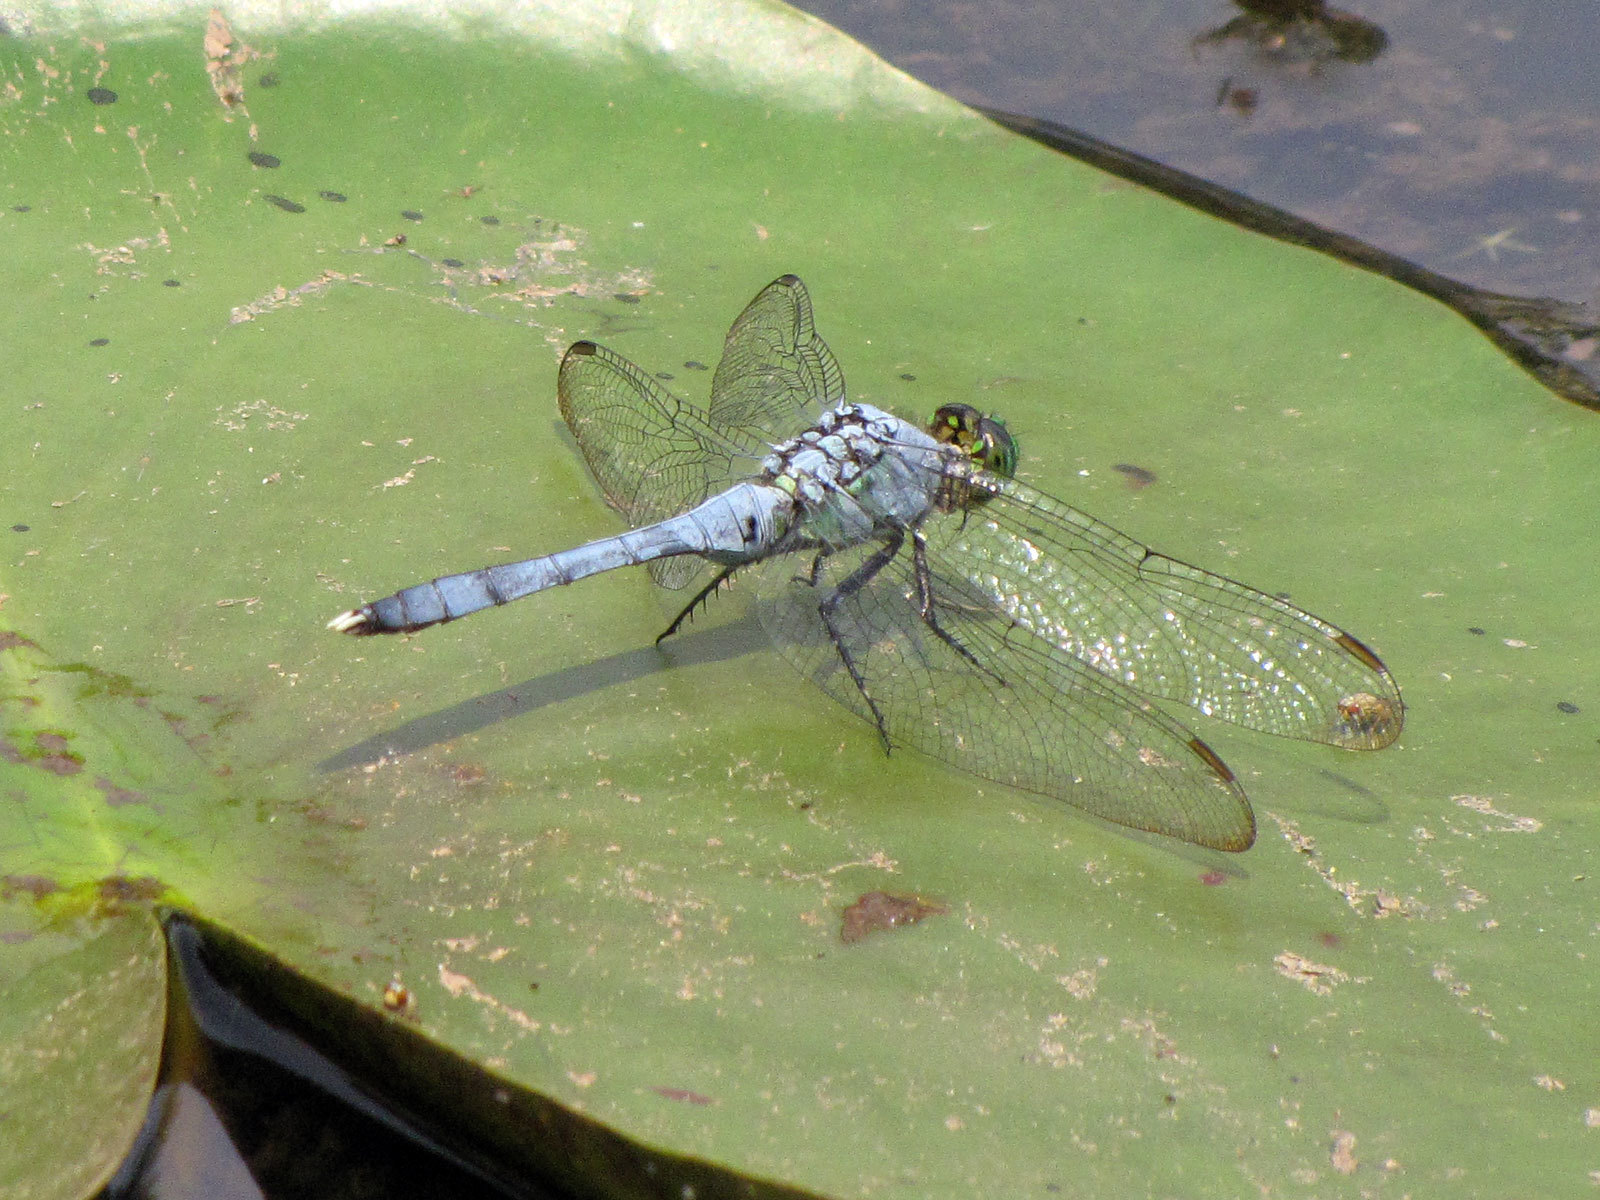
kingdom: Animalia
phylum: Arthropoda
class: Insecta
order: Odonata
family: Libellulidae
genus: Erythemis
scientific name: Erythemis simplicicollis
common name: Eastern pondhawk
